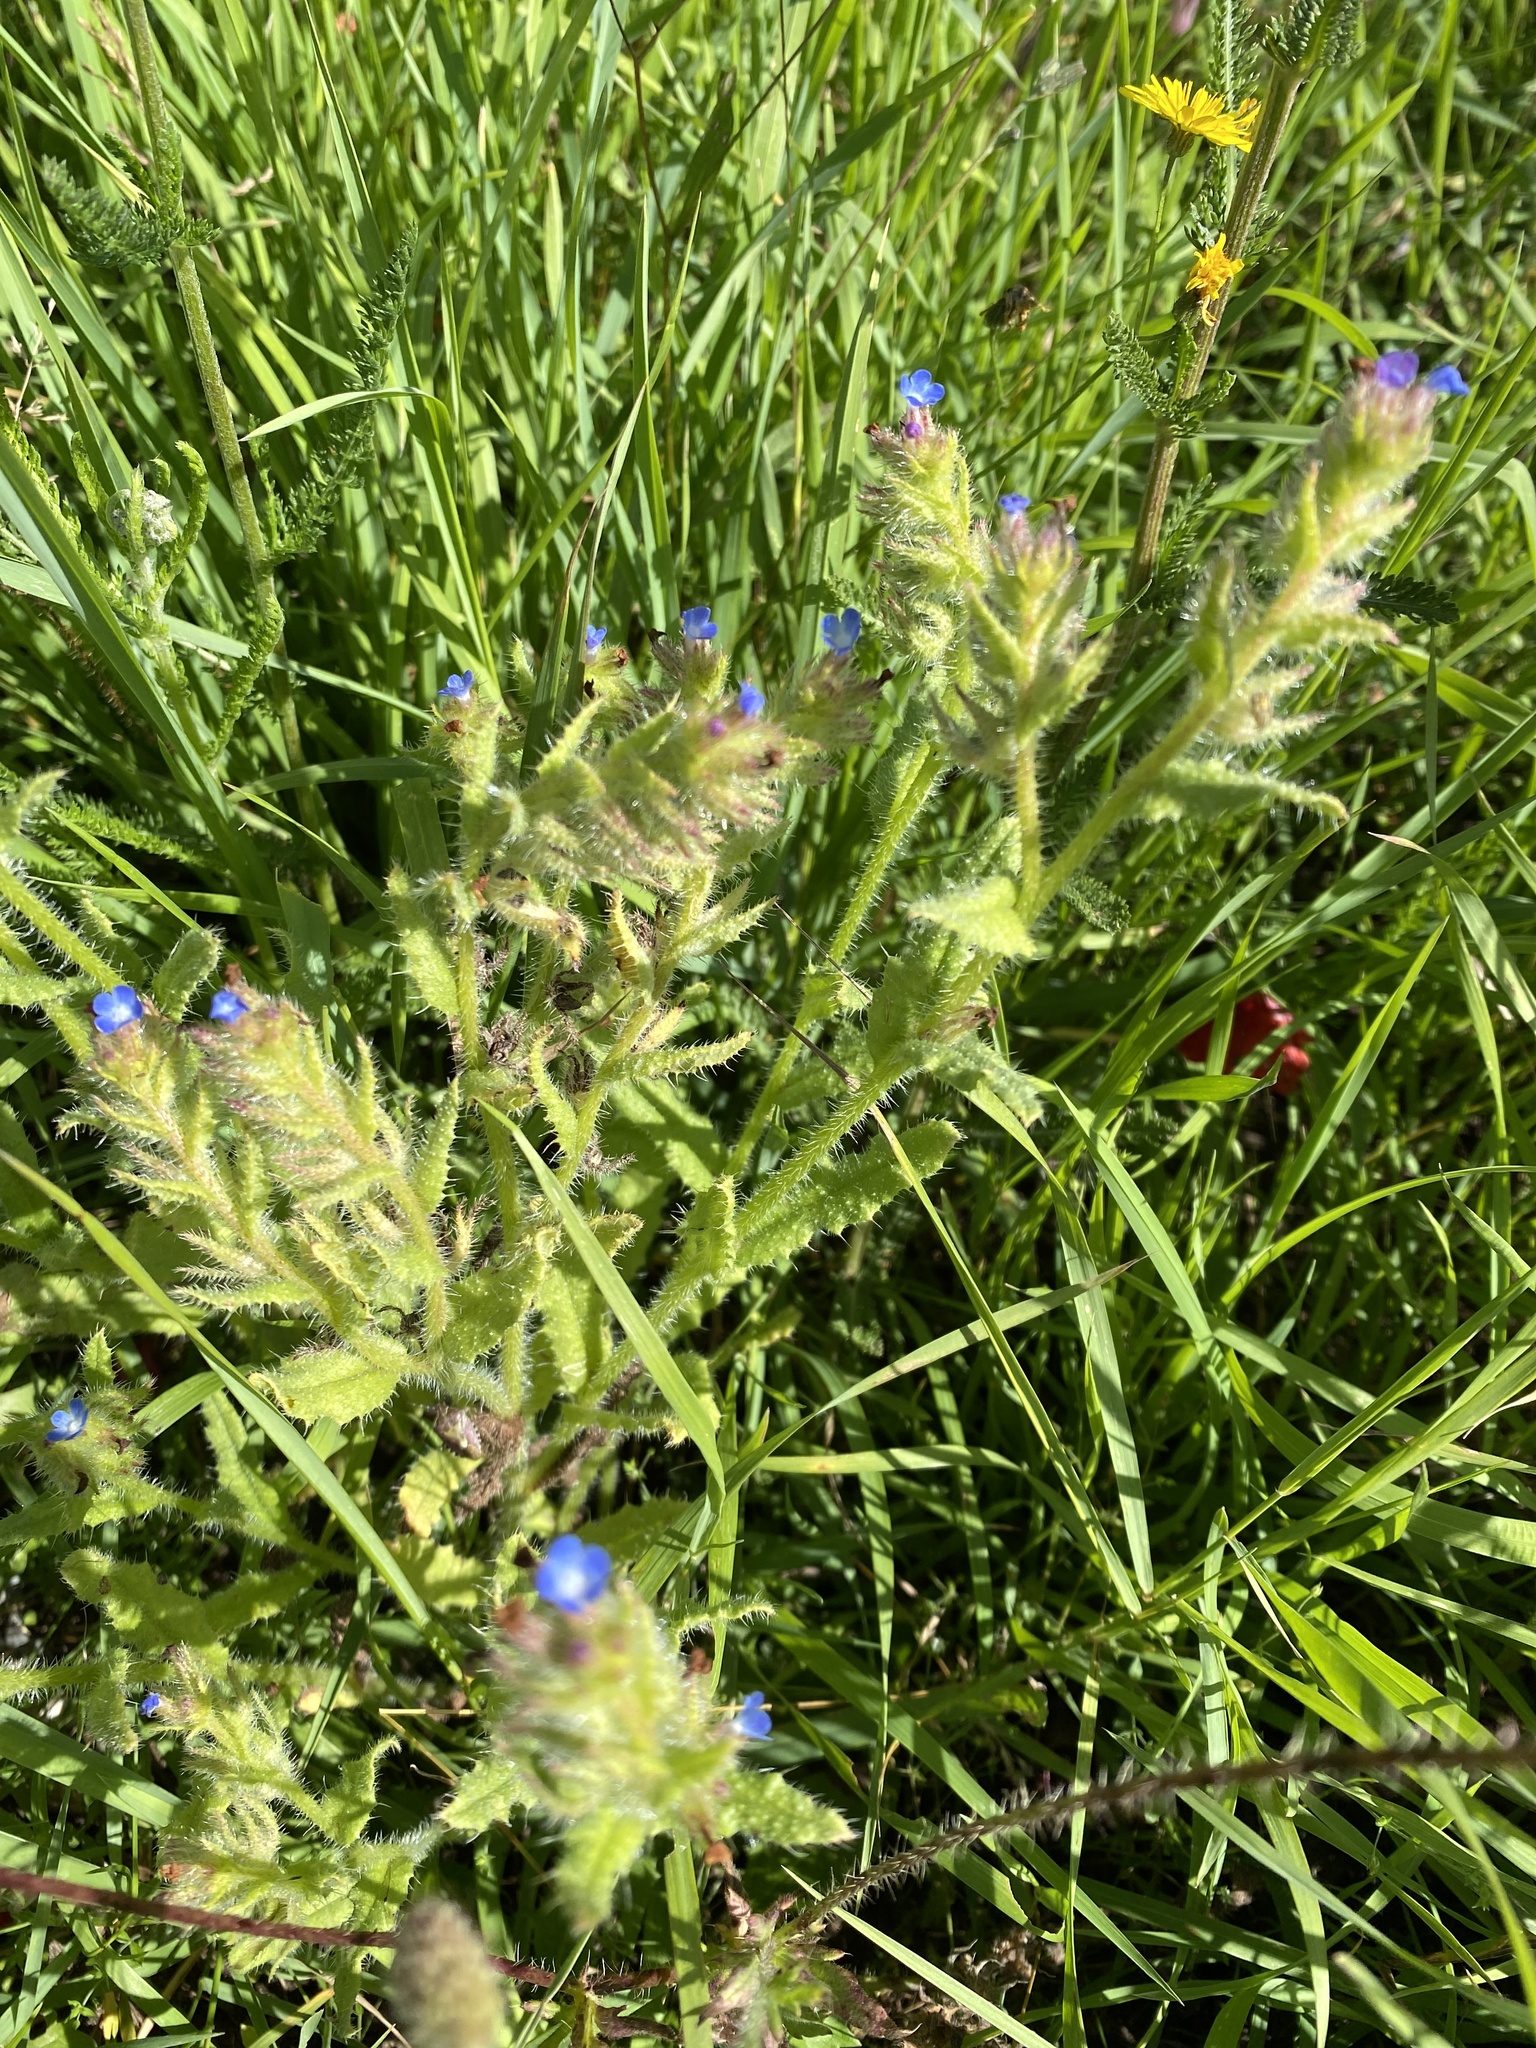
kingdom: Plantae
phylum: Tracheophyta
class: Magnoliopsida
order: Boraginales
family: Boraginaceae
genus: Lycopsis
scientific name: Lycopsis arvensis
